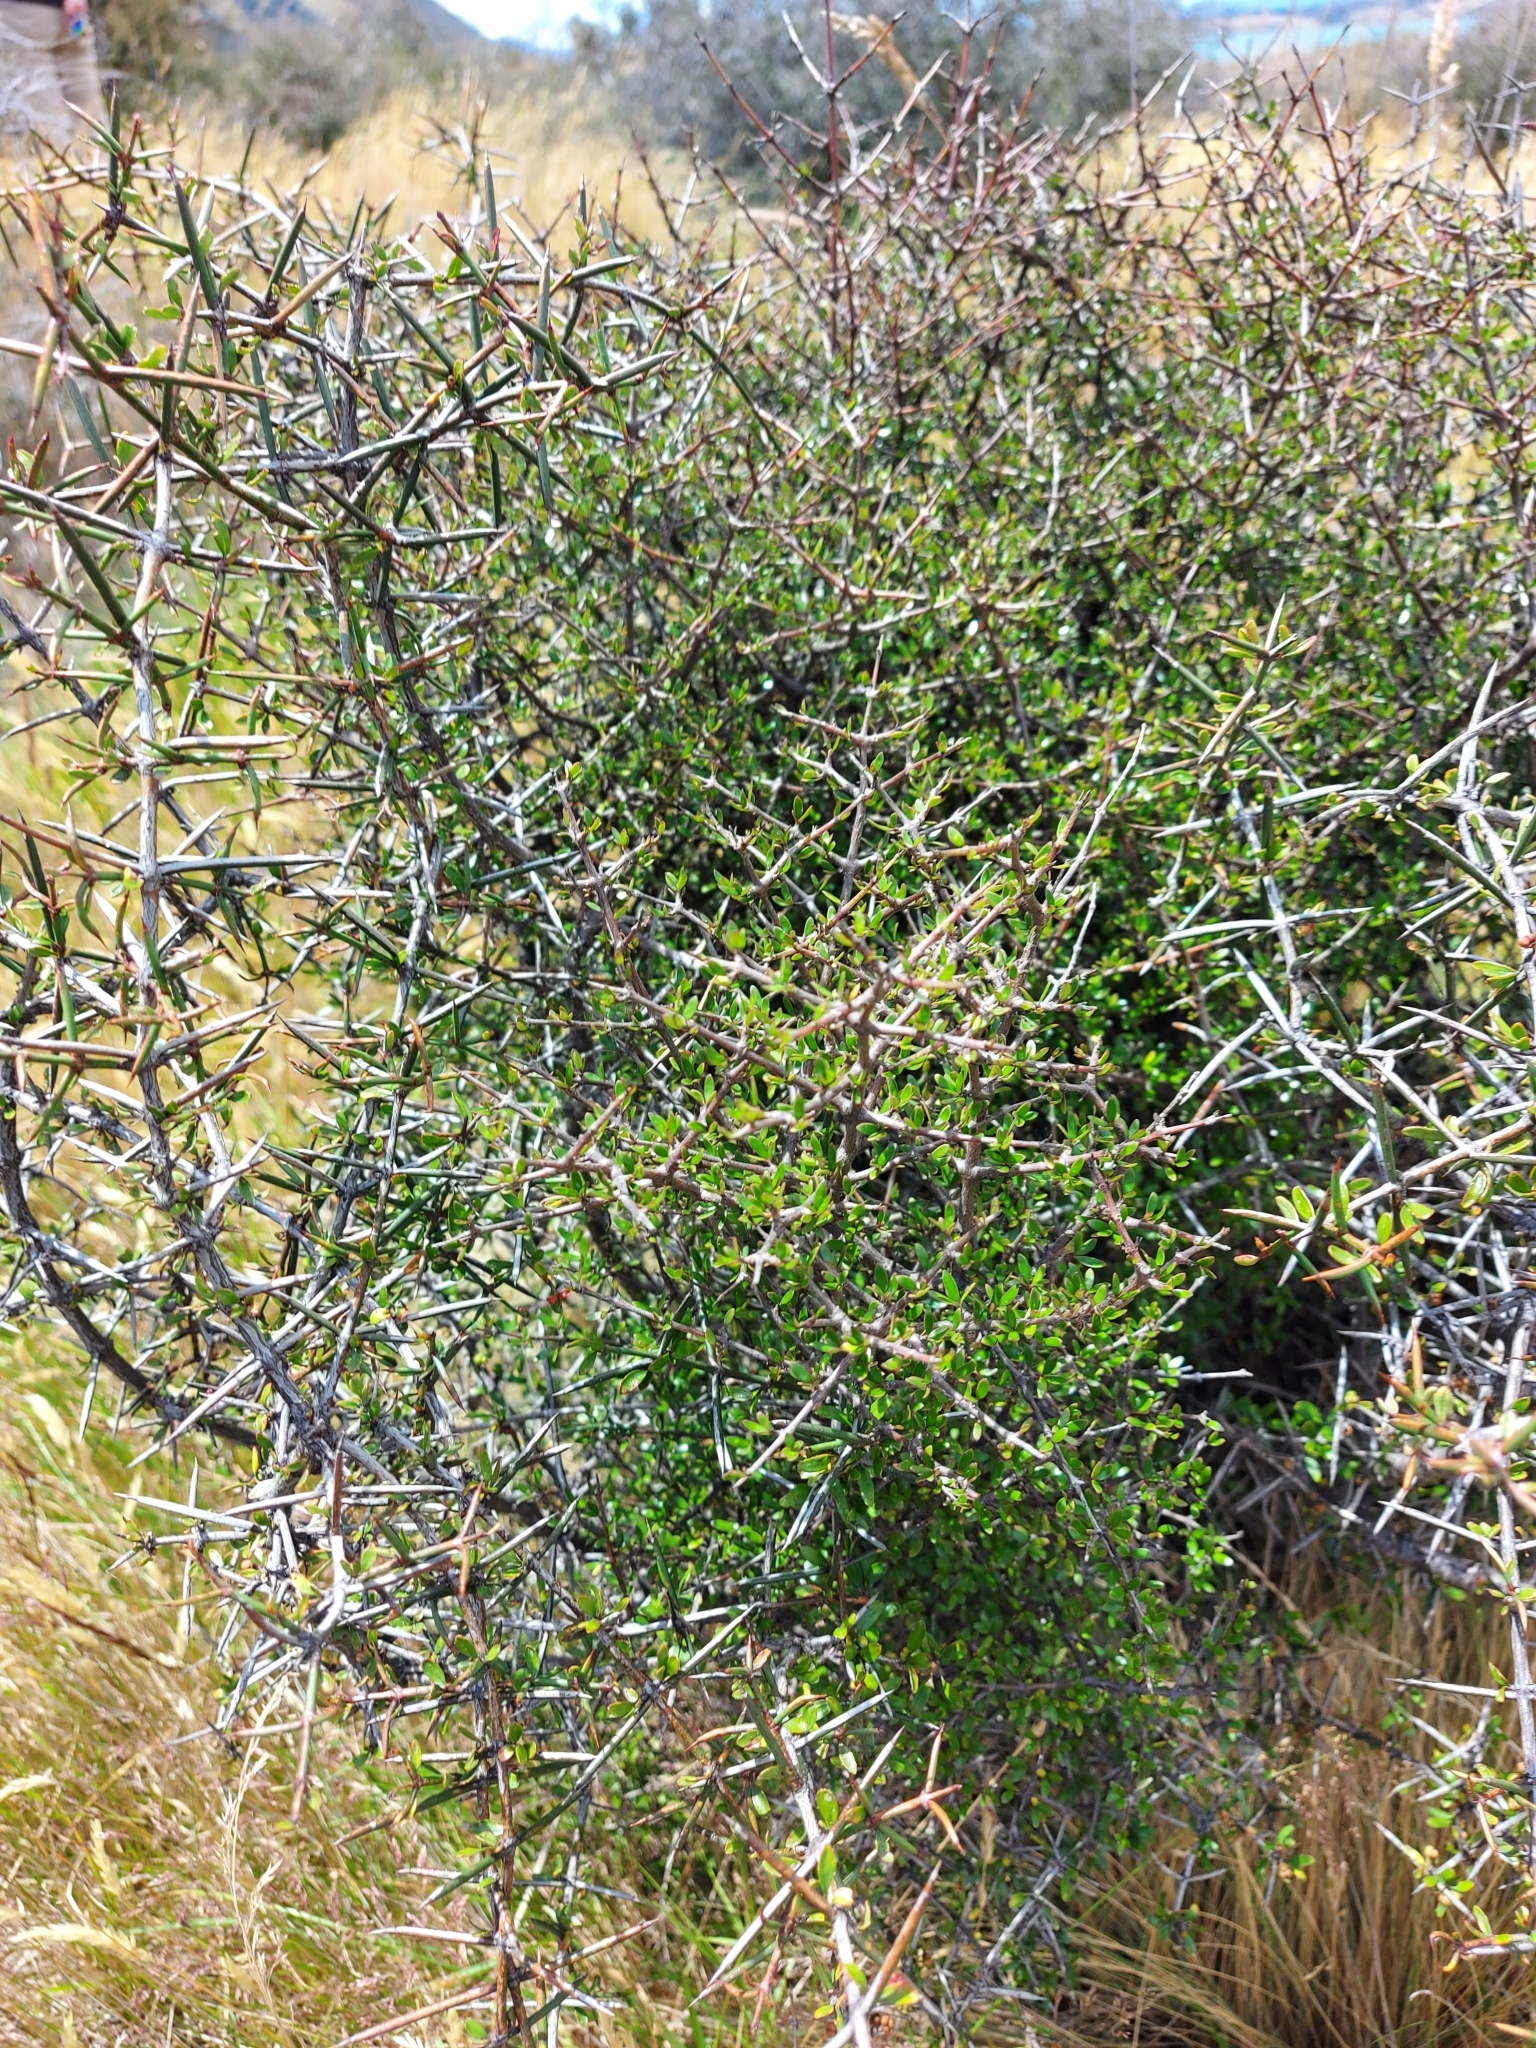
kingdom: Plantae
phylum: Tracheophyta
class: Magnoliopsida
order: Rosales
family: Rhamnaceae
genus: Discaria
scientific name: Discaria toumatou
